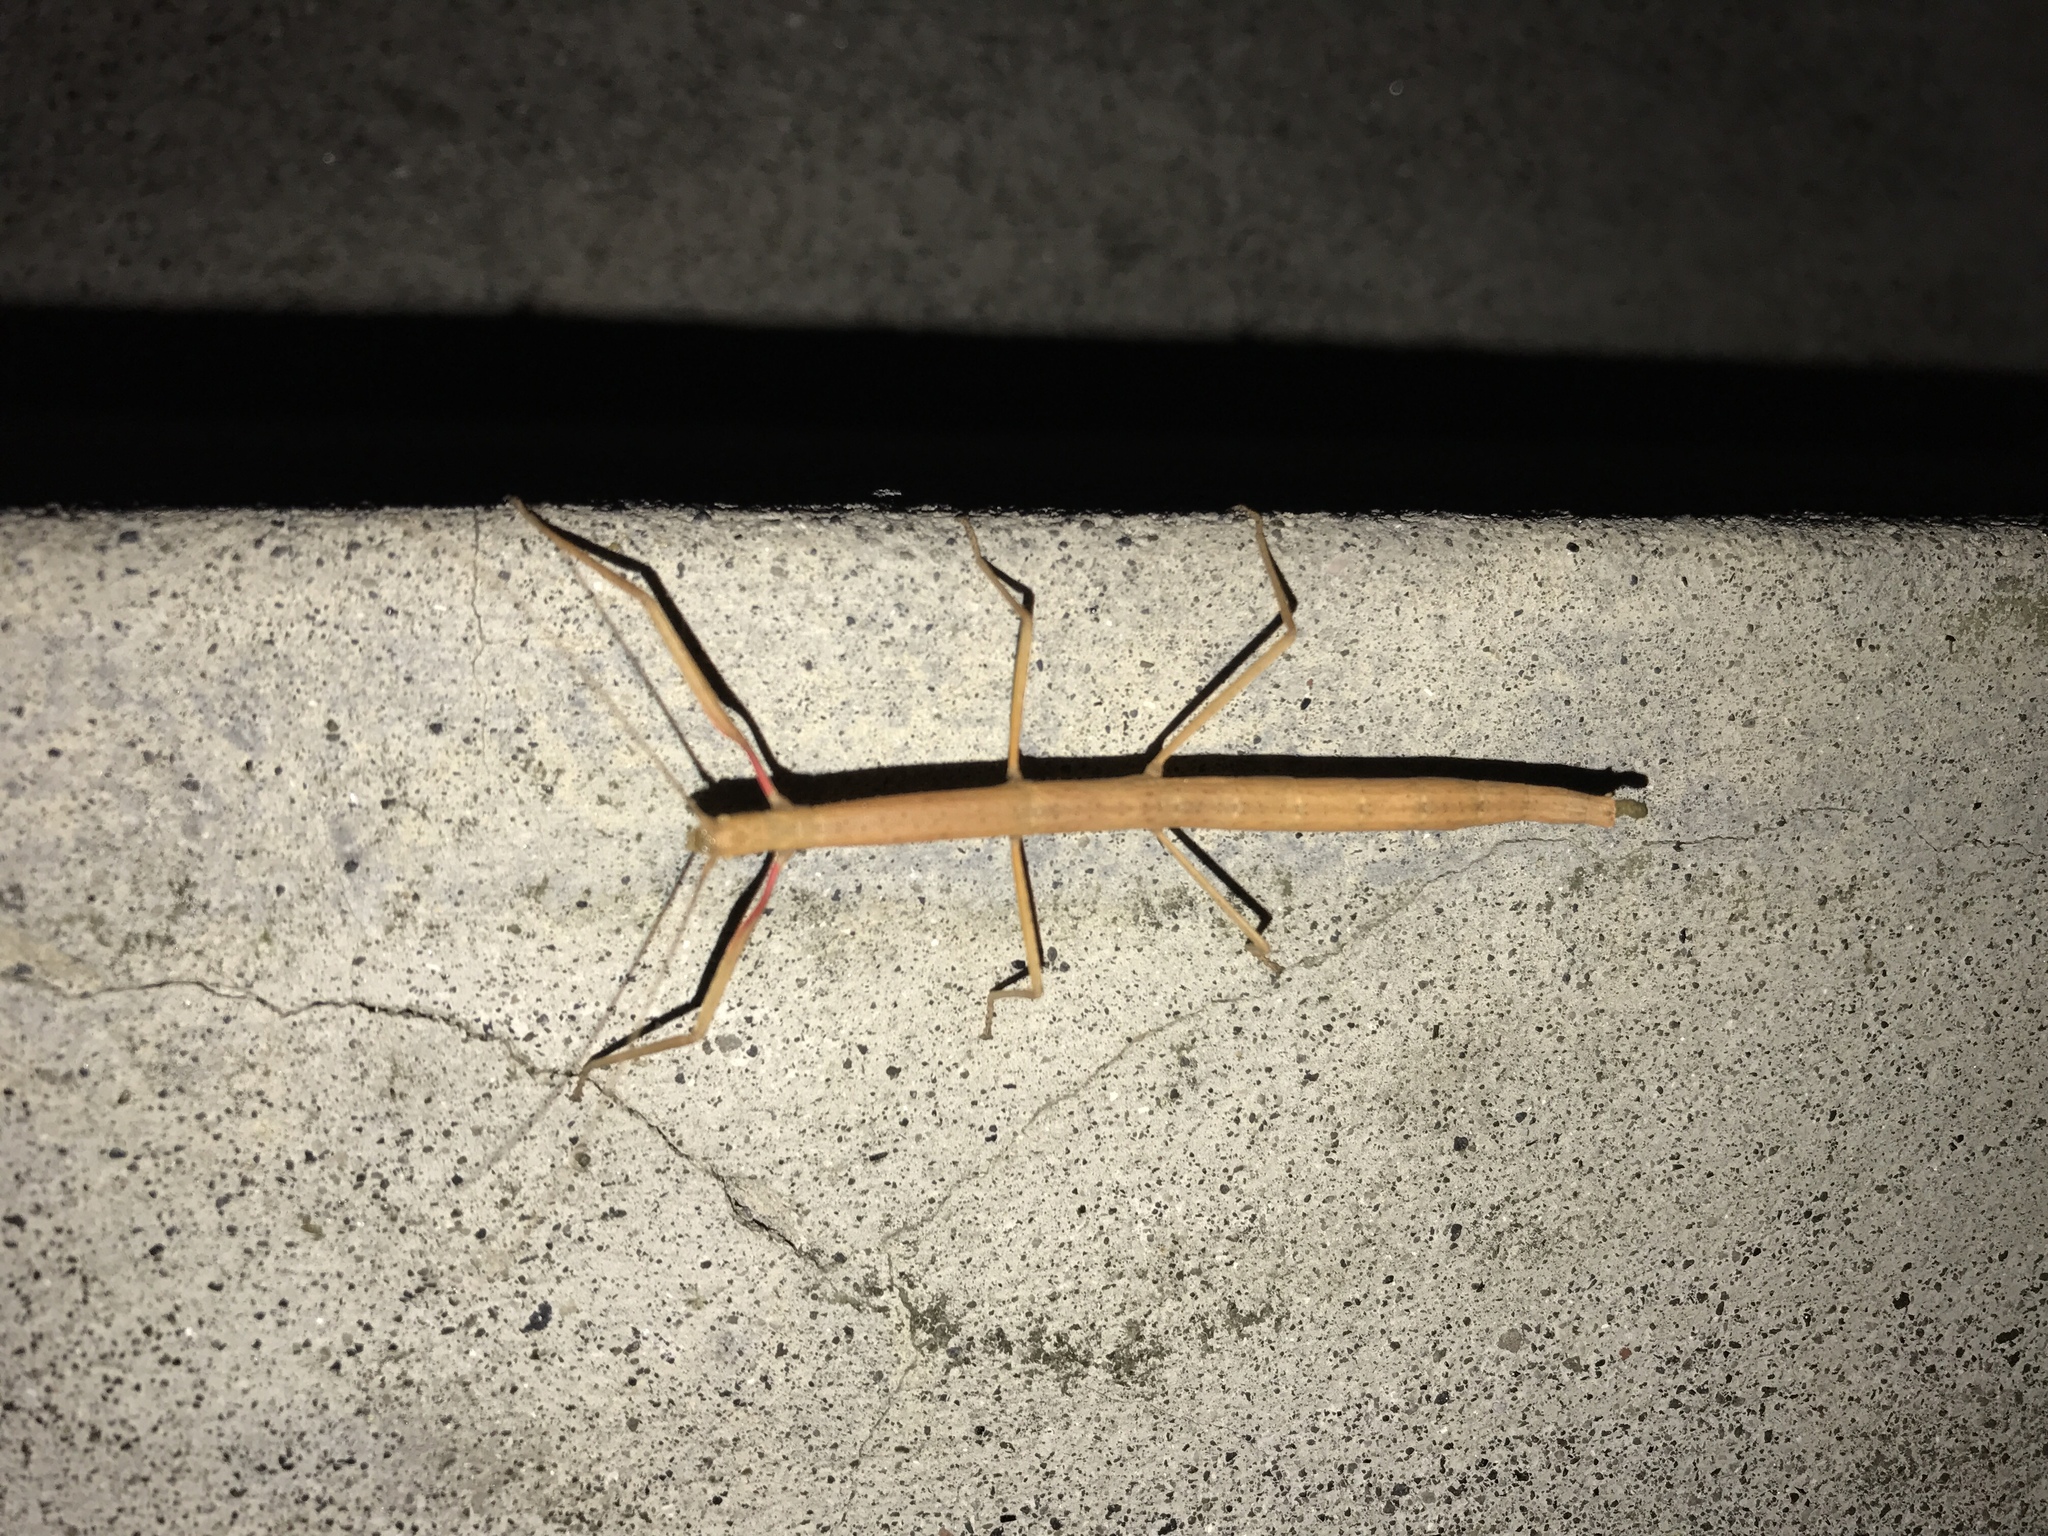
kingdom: Animalia
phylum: Arthropoda
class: Insecta
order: Phasmida
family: Lonchodidae
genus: Carausius
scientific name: Carausius morosus
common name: Indian stick insect
